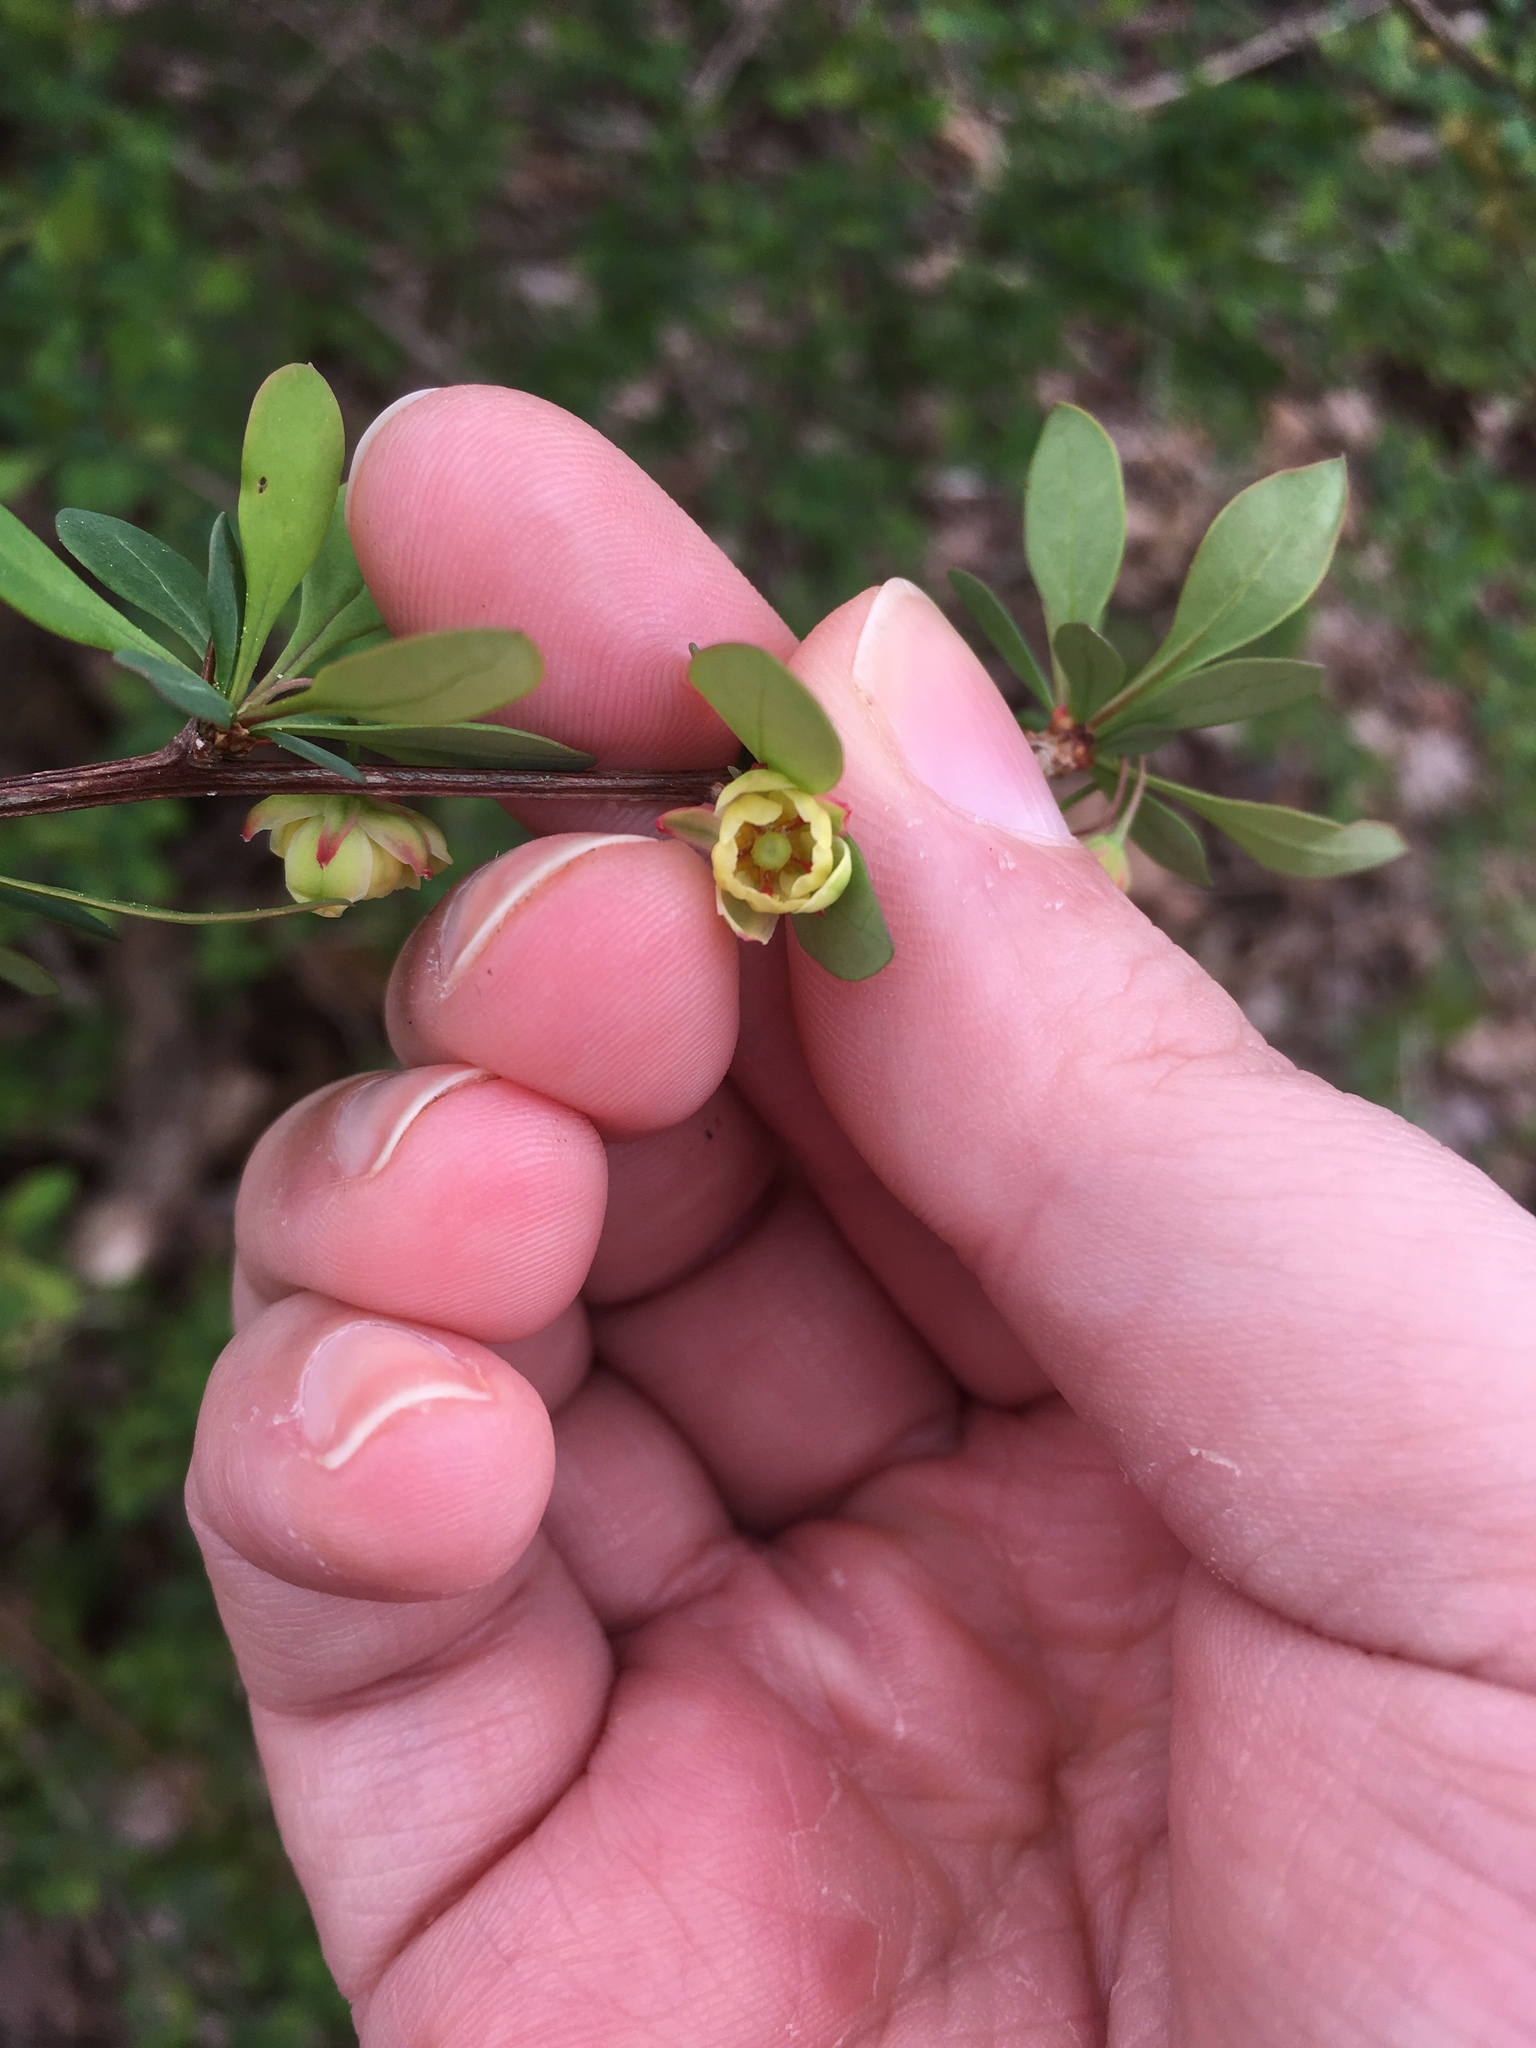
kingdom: Plantae
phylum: Tracheophyta
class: Magnoliopsida
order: Ranunculales
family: Berberidaceae
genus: Berberis
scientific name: Berberis thunbergii
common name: Japanese barberry
